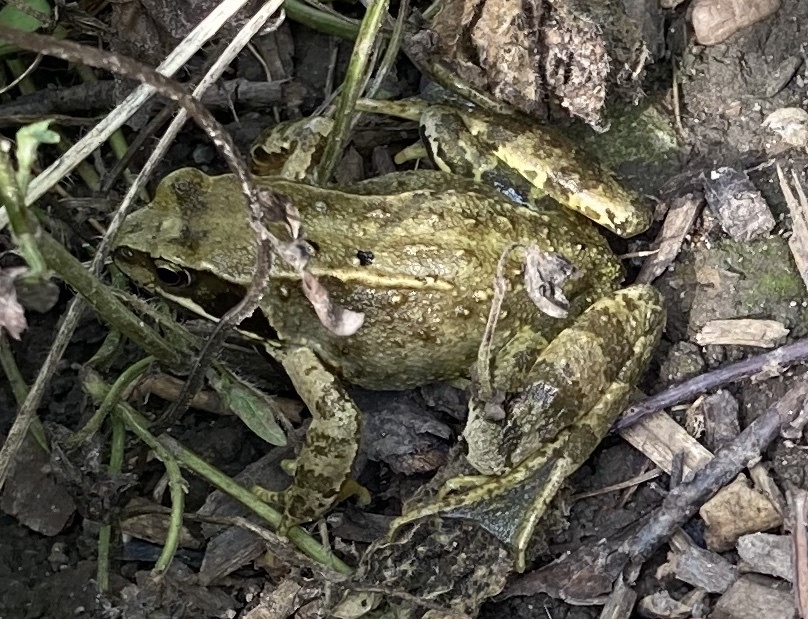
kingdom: Animalia
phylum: Chordata
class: Amphibia
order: Anura
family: Ranidae
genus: Rana
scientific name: Rana temporaria
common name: Common frog
